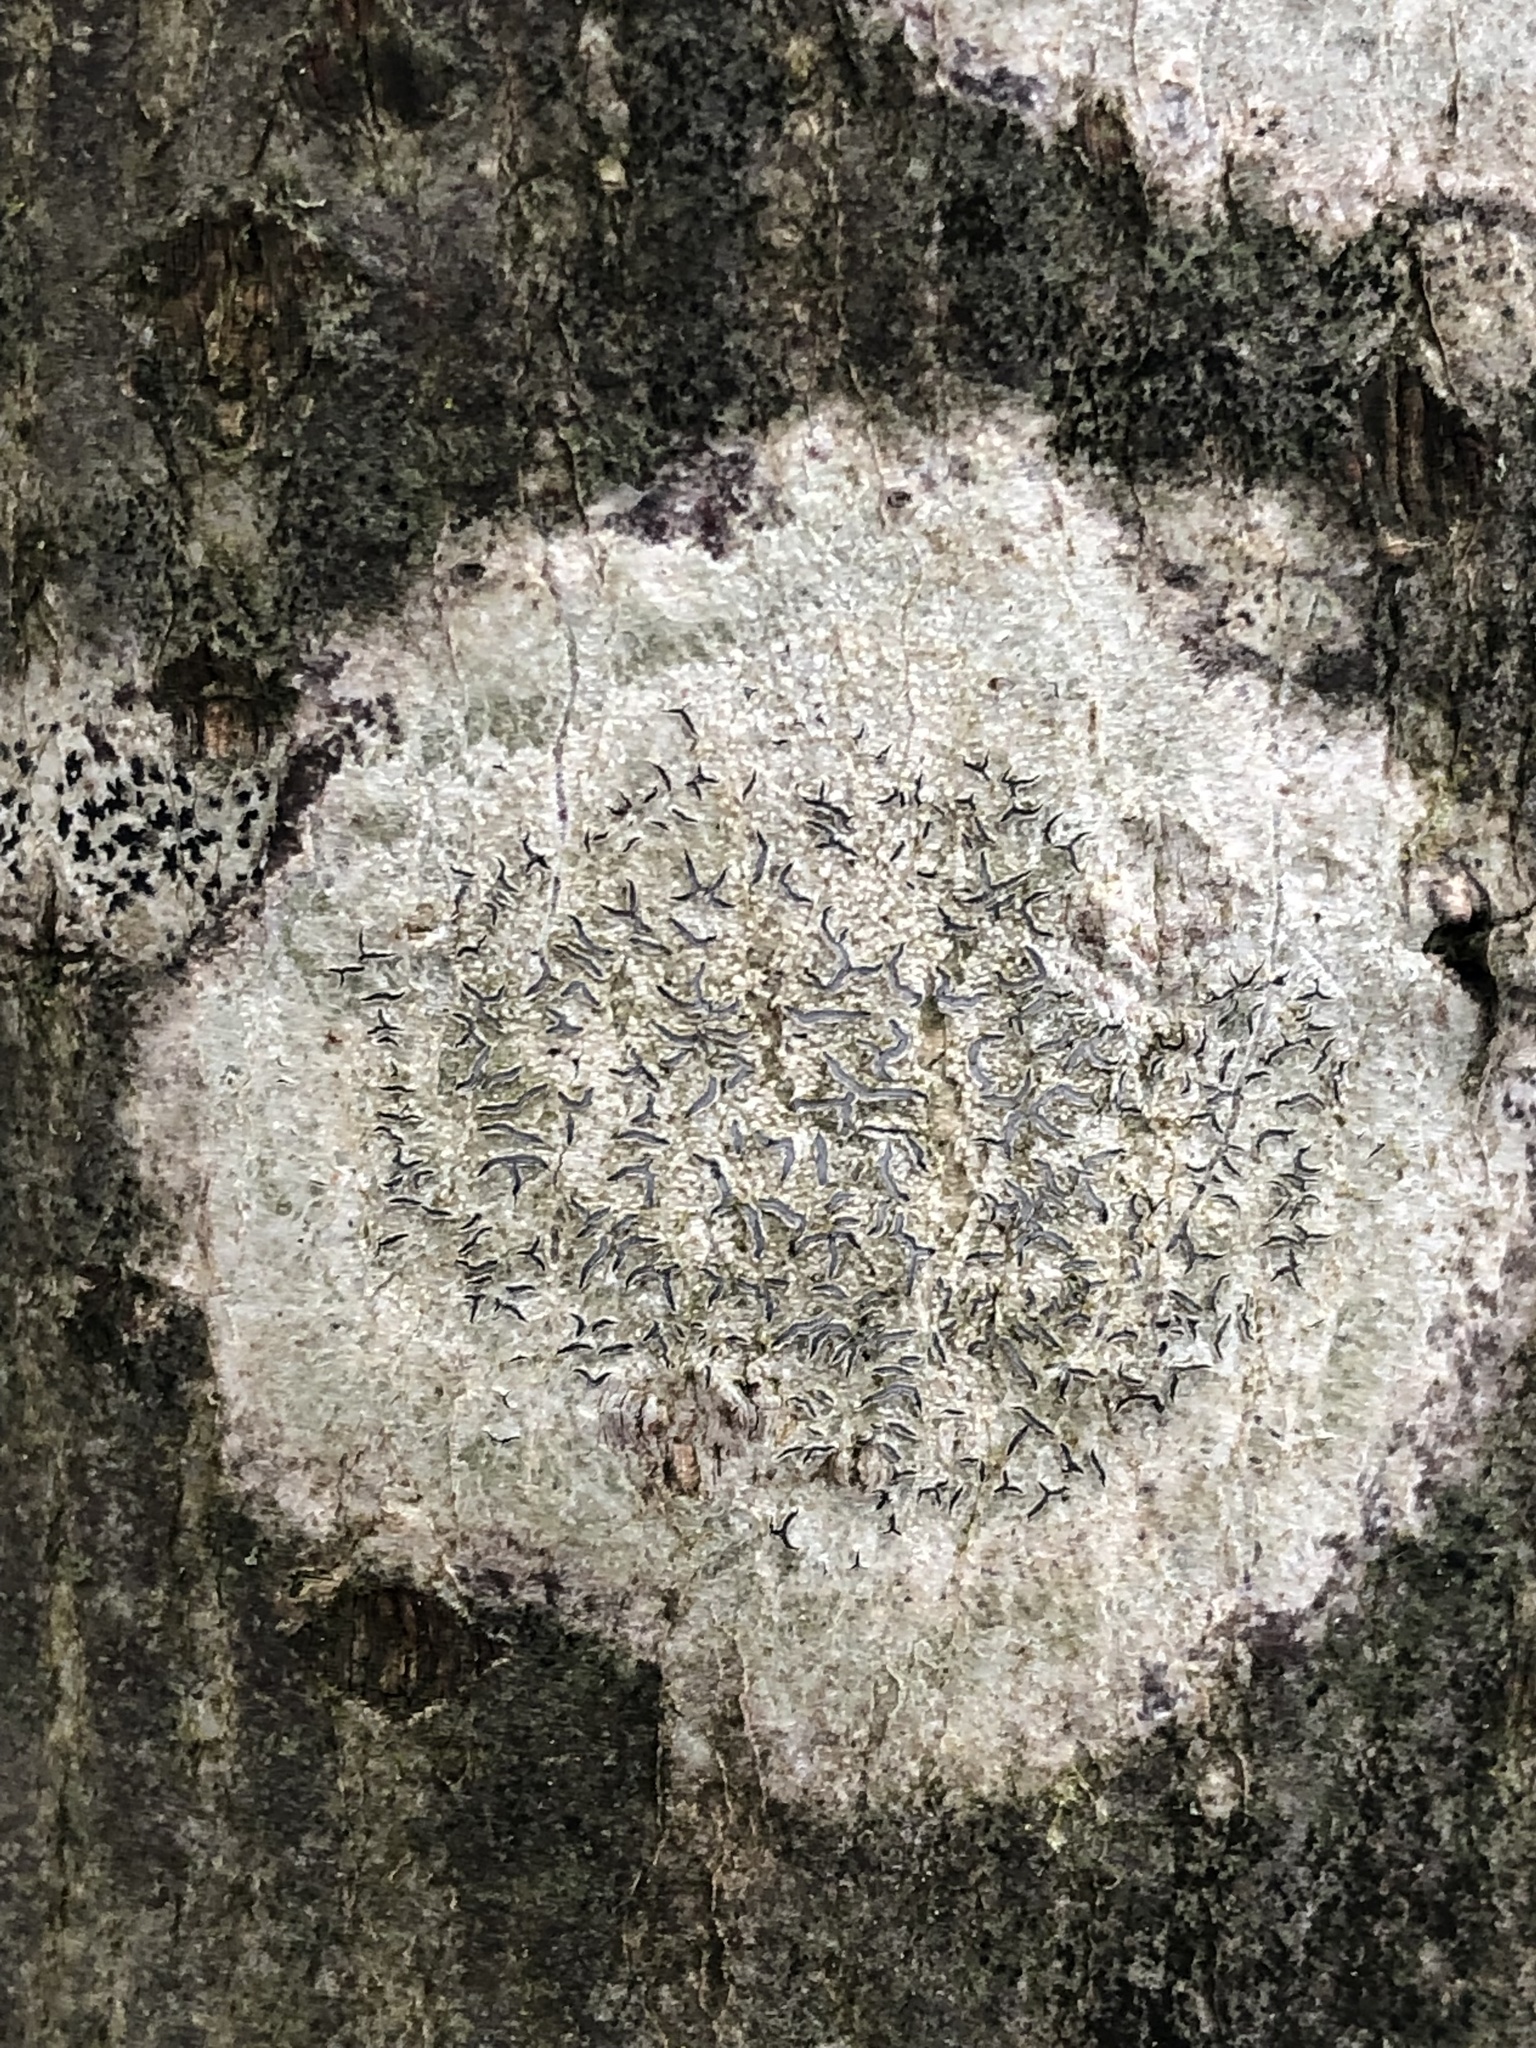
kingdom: Fungi
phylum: Ascomycota
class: Lecanoromycetes
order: Ostropales
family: Graphidaceae
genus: Graphis
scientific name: Graphis scripta
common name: Script lichen
